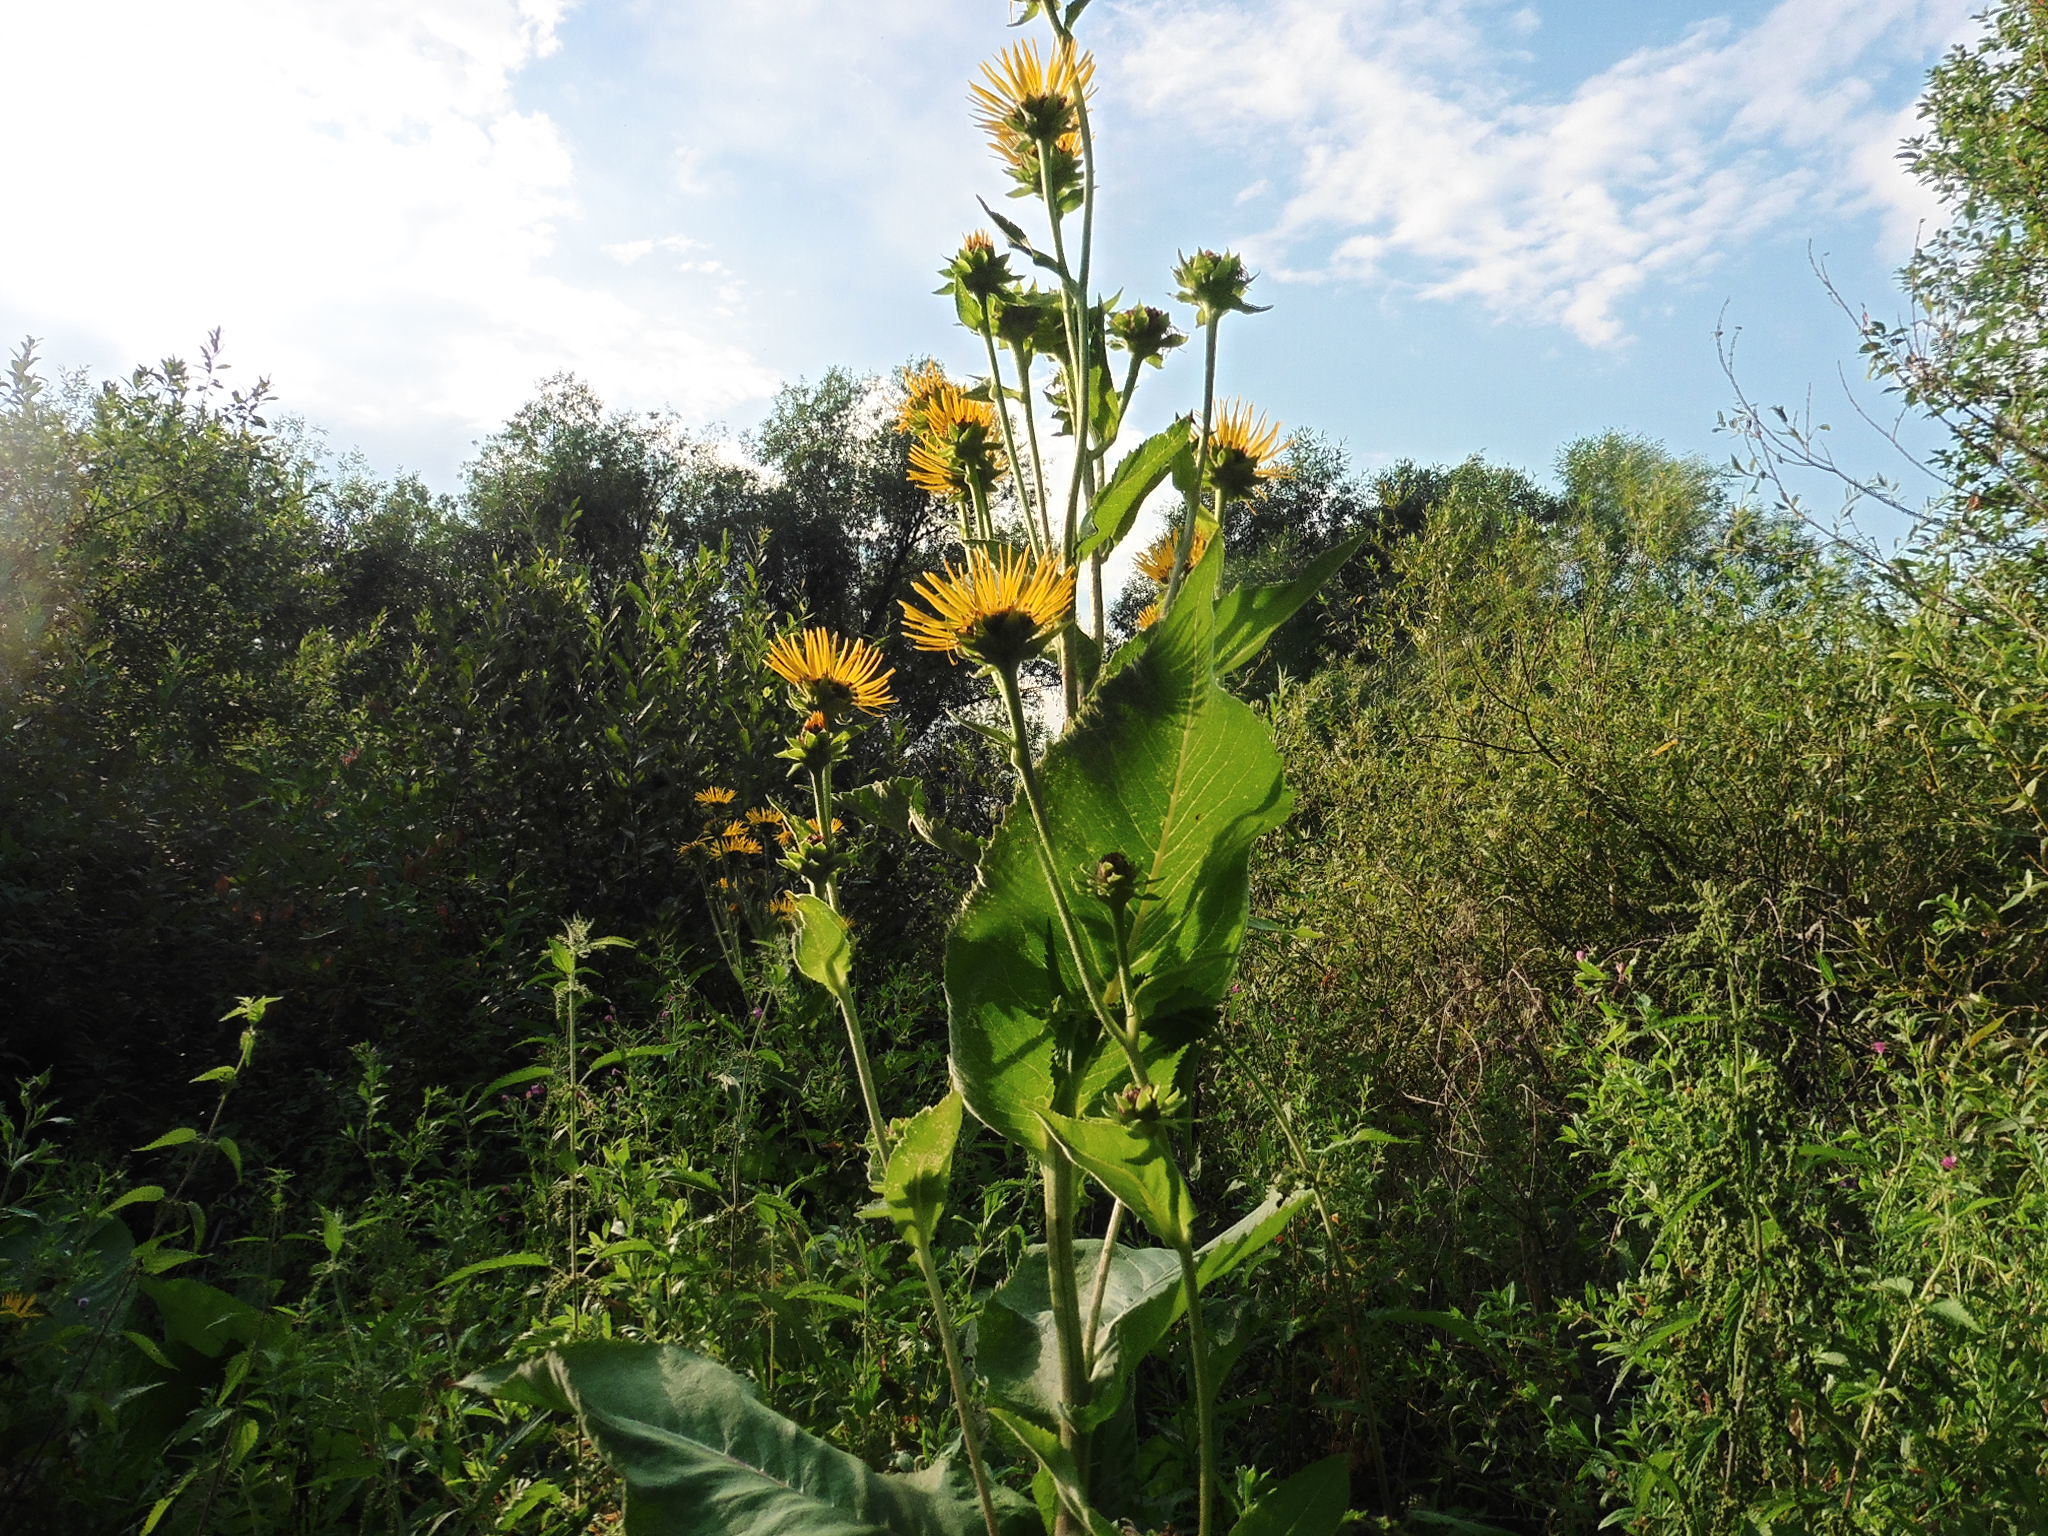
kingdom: Plantae
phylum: Tracheophyta
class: Magnoliopsida
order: Asterales
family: Asteraceae
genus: Inula
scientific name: Inula helenium
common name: Elecampane
